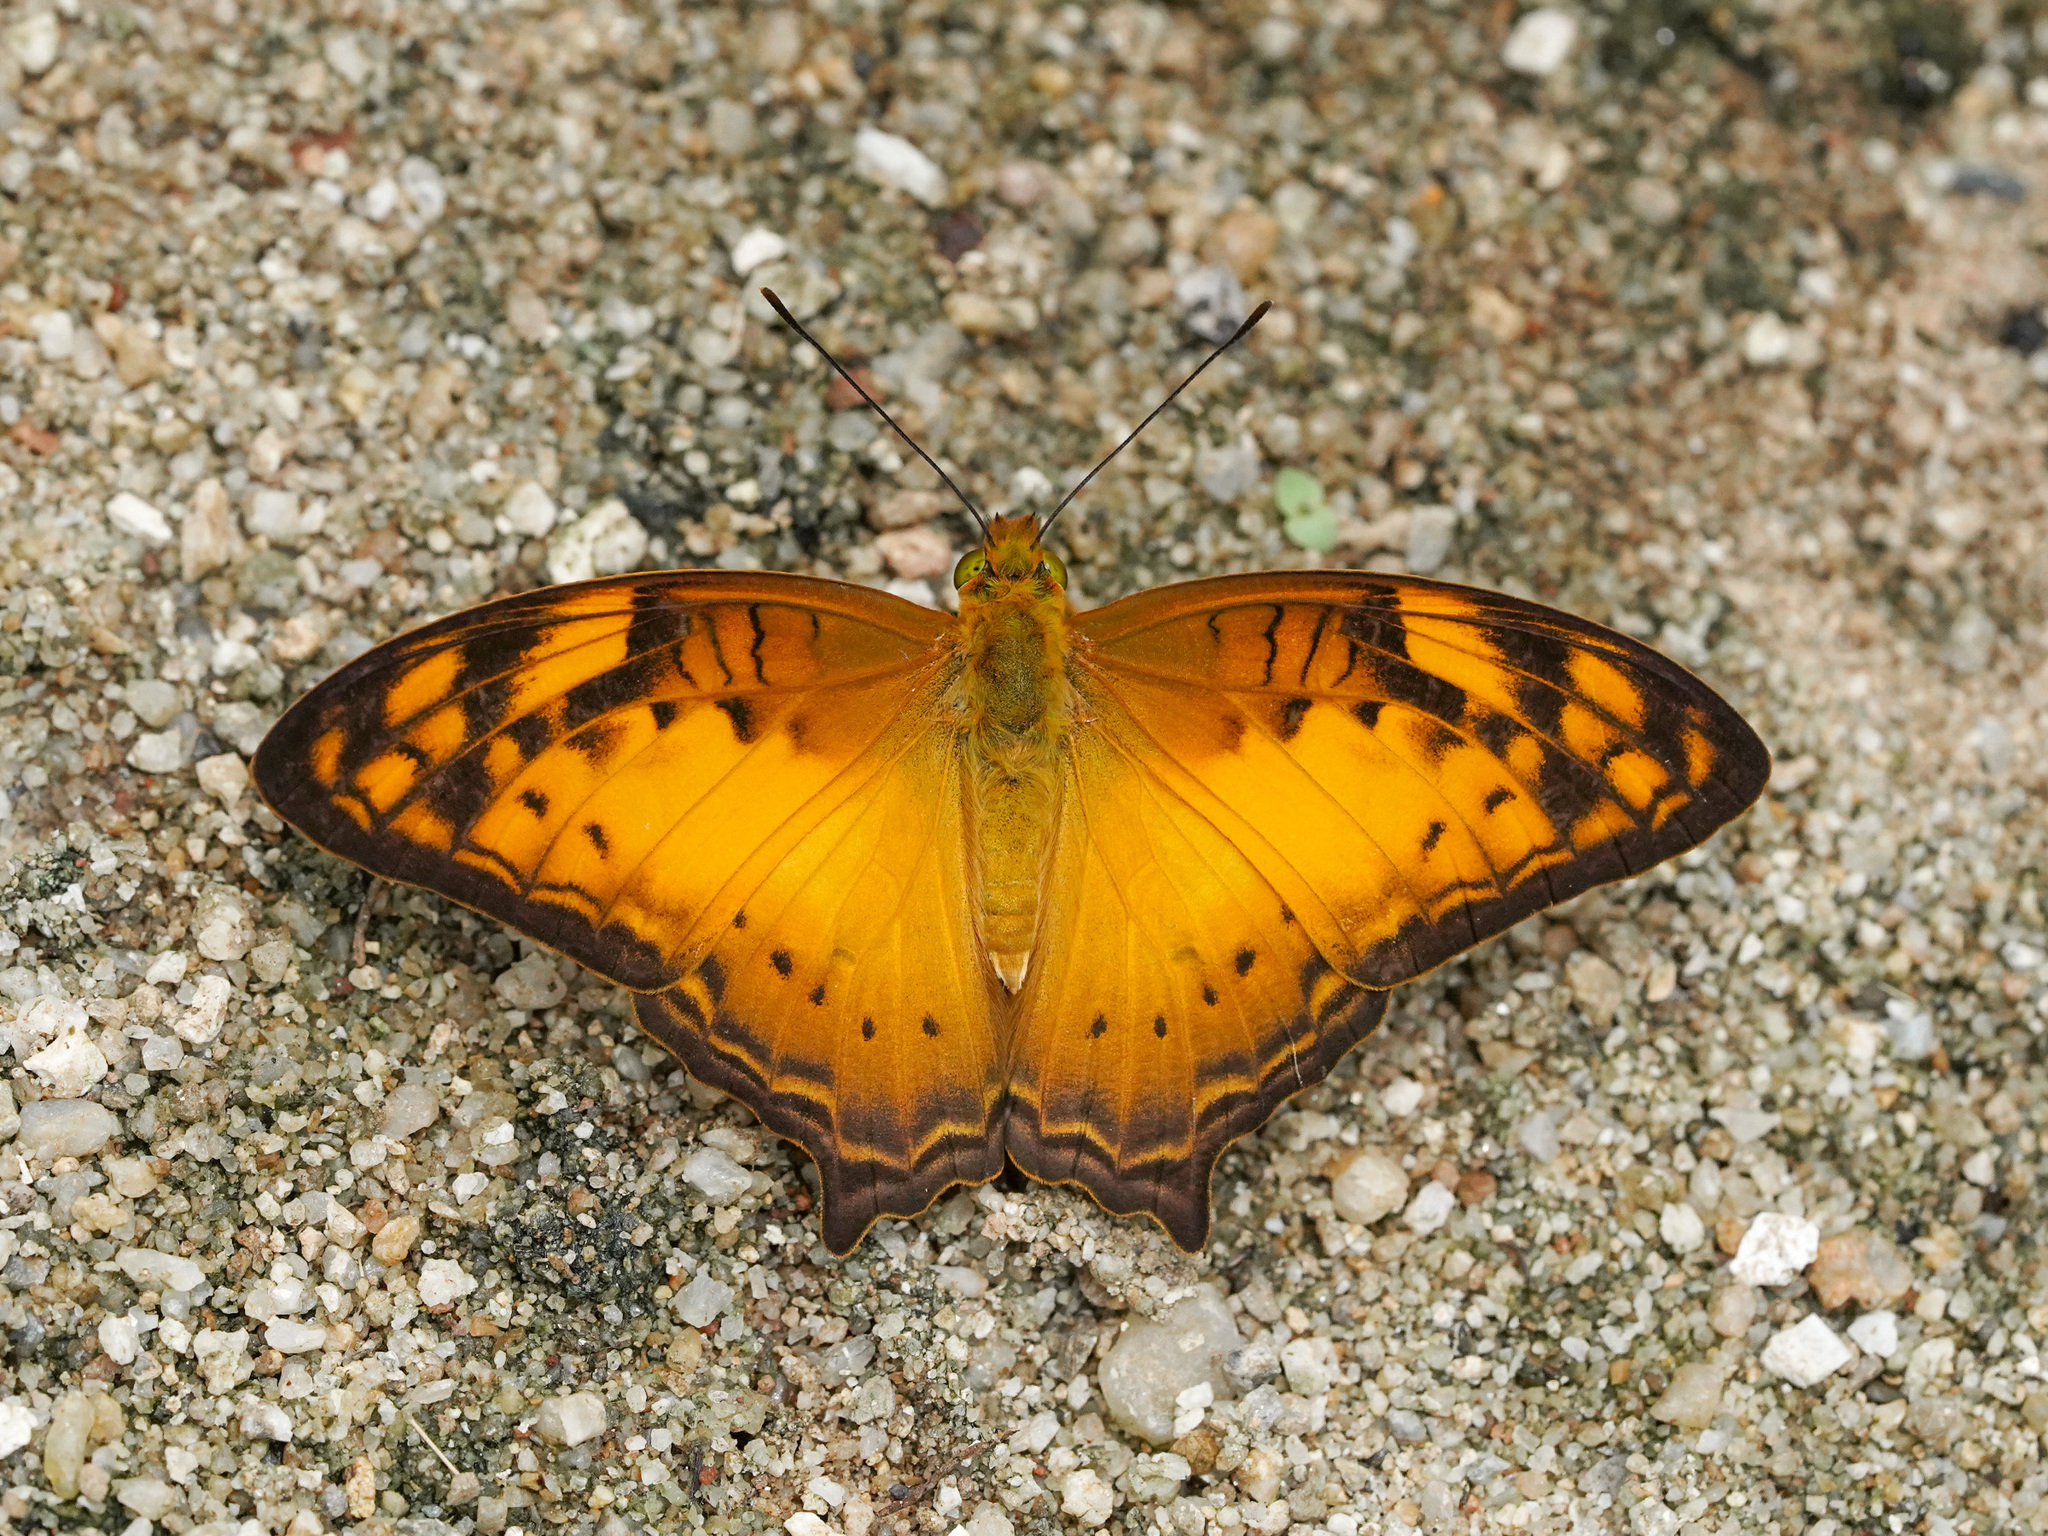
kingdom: Animalia
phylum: Arthropoda
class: Insecta
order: Lepidoptera
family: Nymphalidae
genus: Vagrans
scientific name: Vagrans sinha
